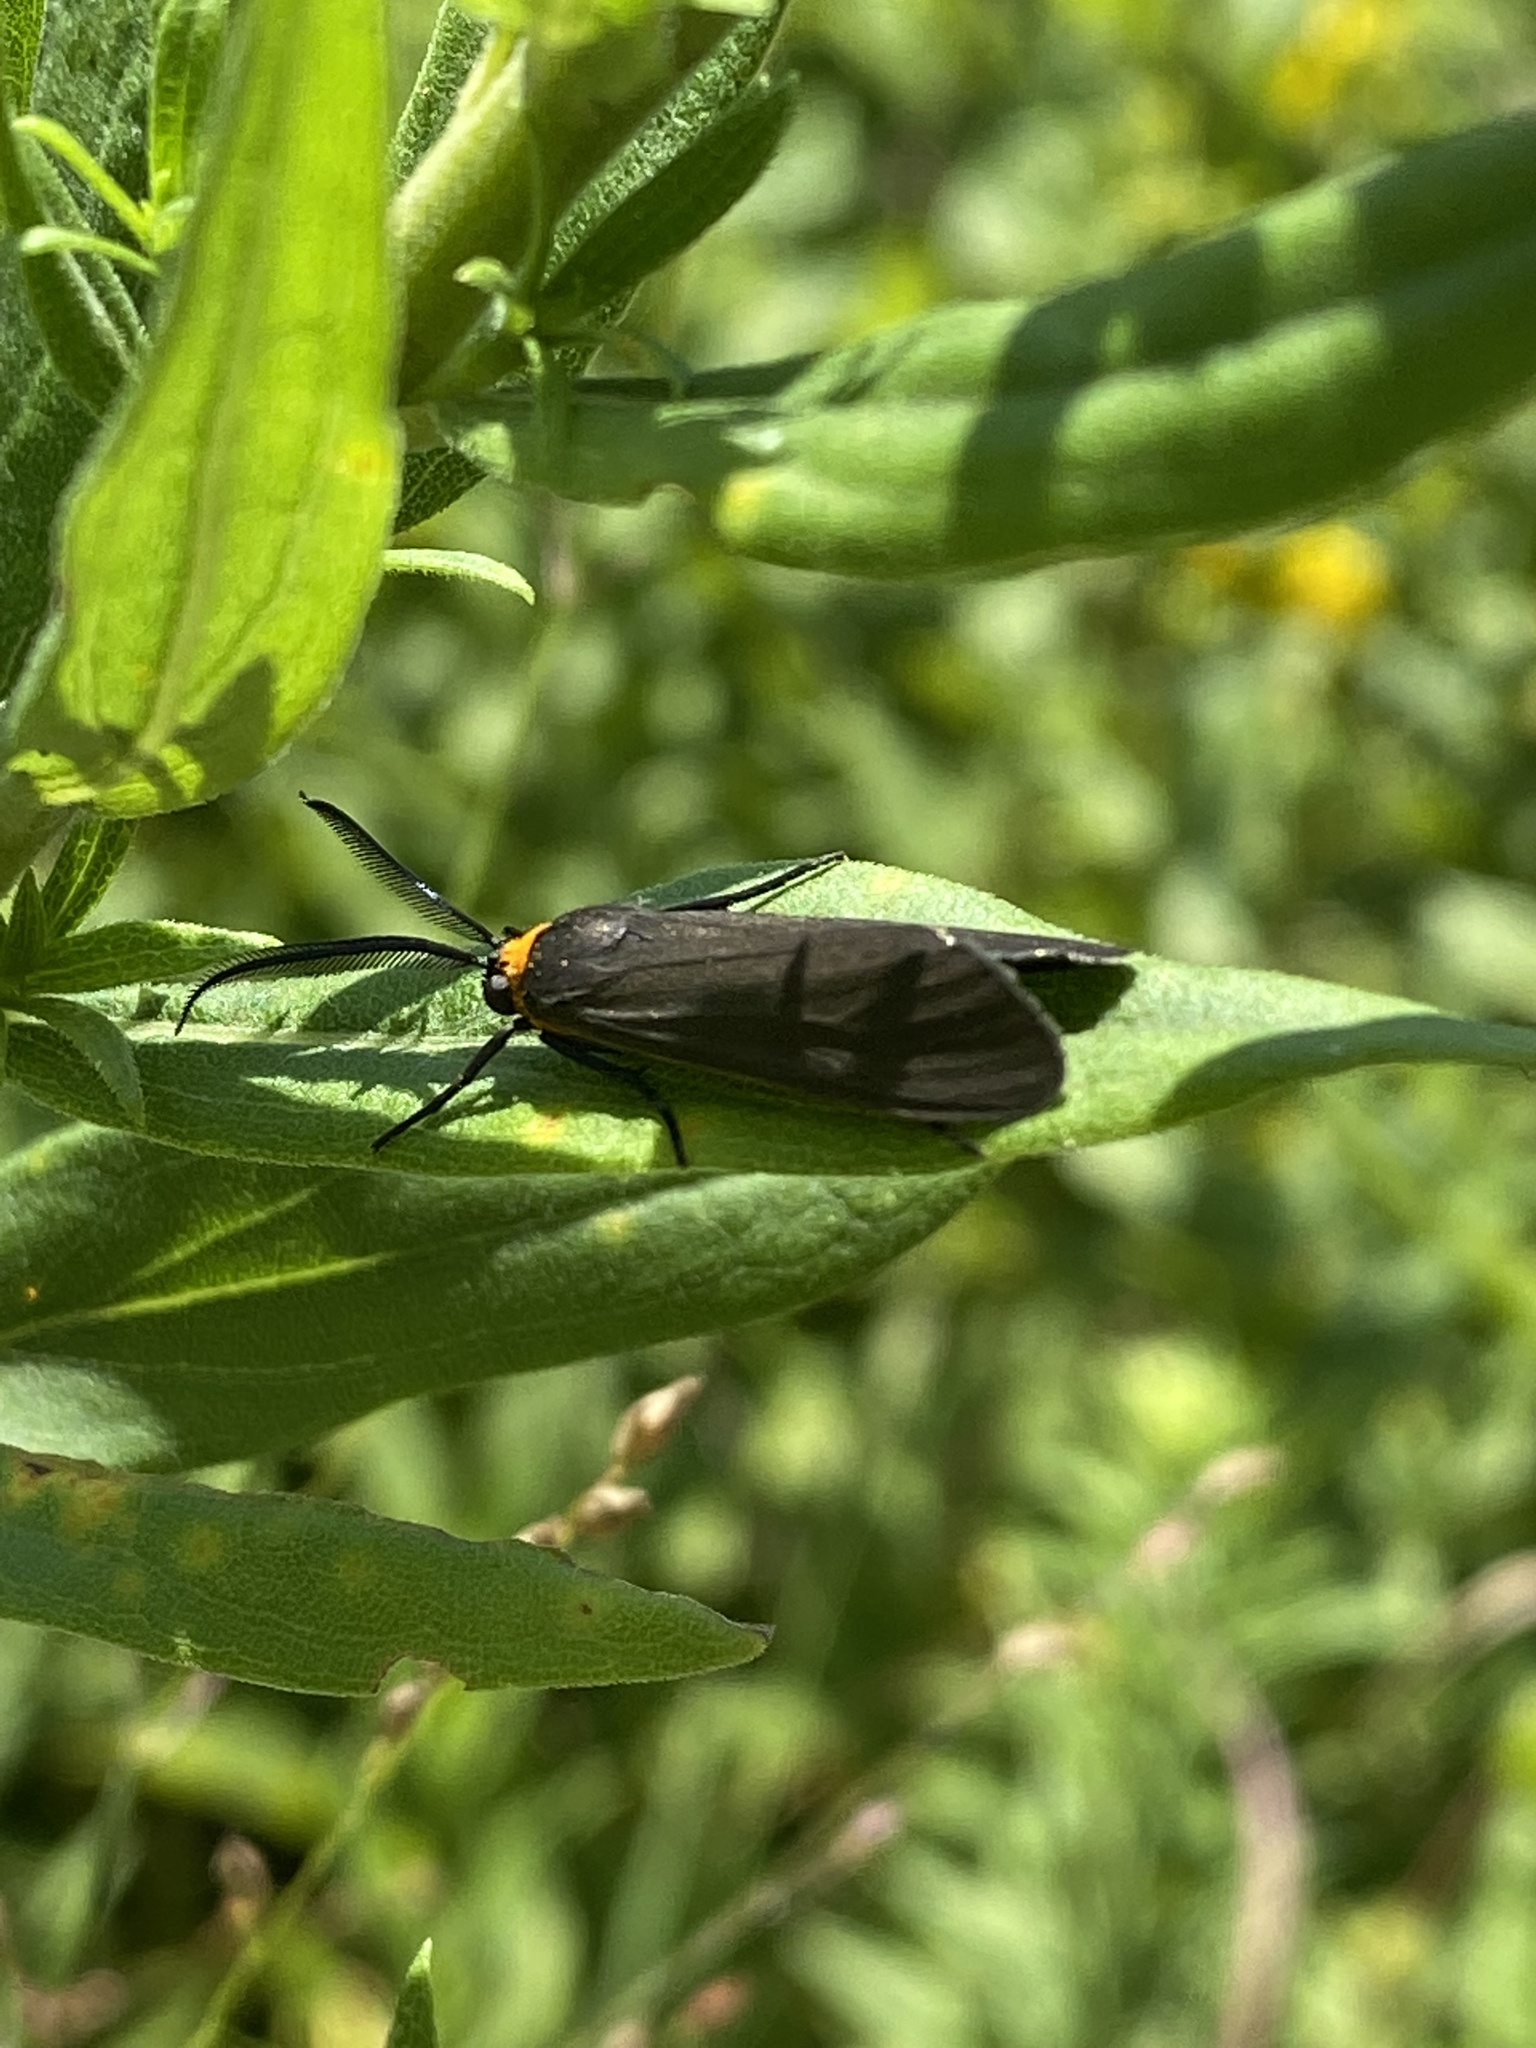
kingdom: Animalia
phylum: Arthropoda
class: Insecta
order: Lepidoptera
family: Erebidae
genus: Cisseps
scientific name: Cisseps fulvicollis
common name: Yellow-collared scape moth
